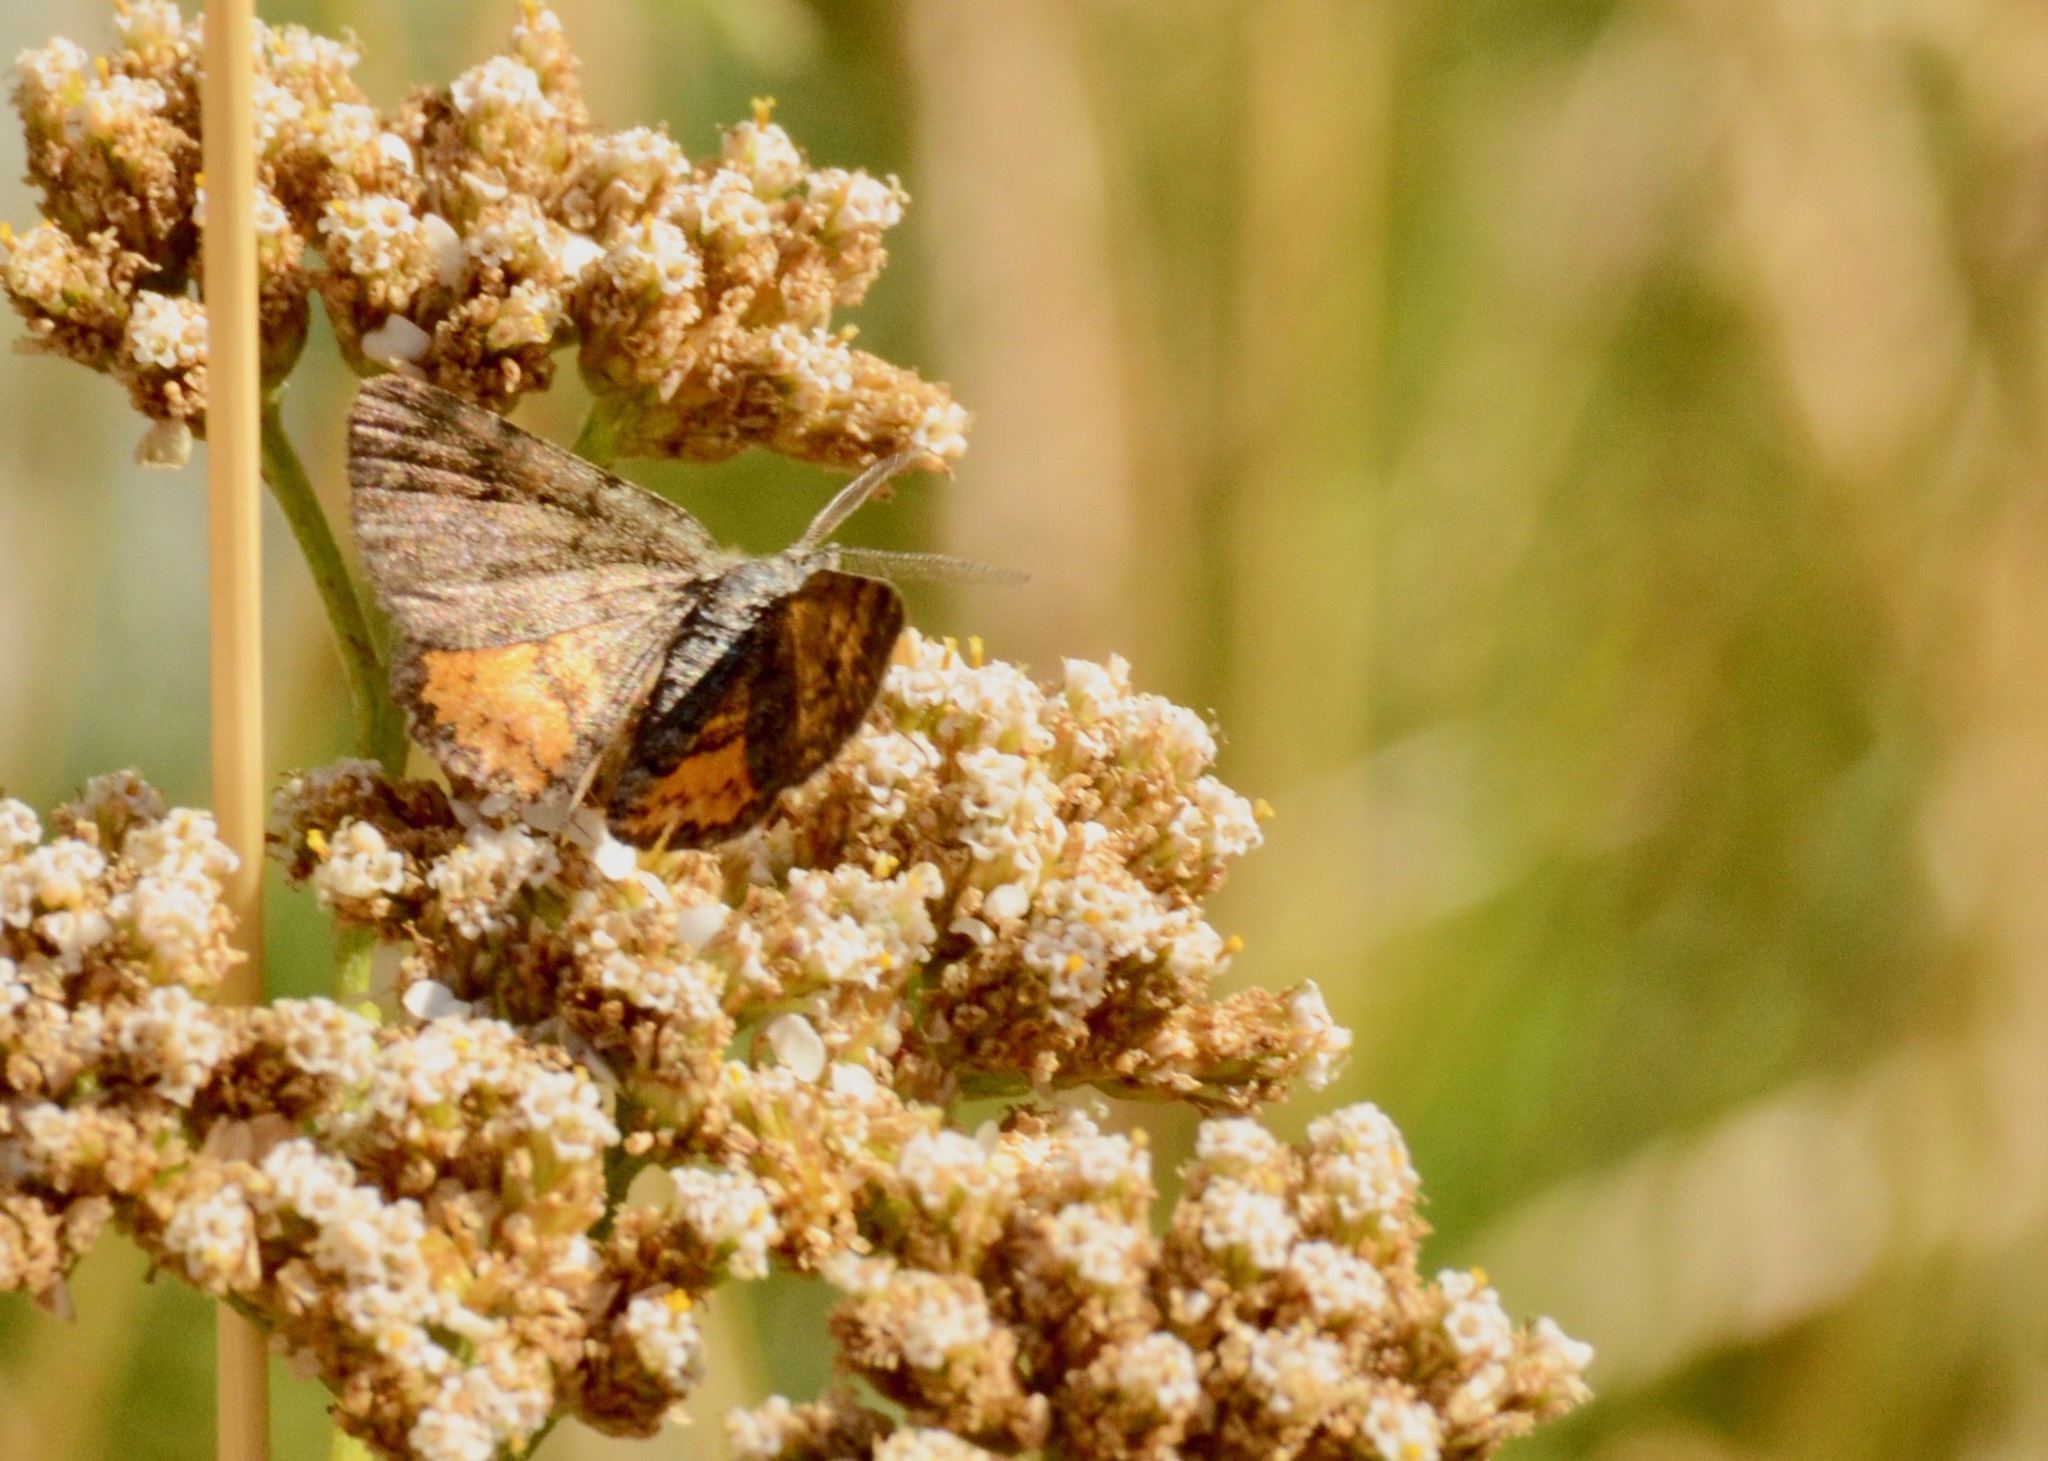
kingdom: Animalia
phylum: Arthropoda
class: Insecta
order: Lepidoptera
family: Geometridae
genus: Paranotoreas
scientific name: Paranotoreas brephosata
